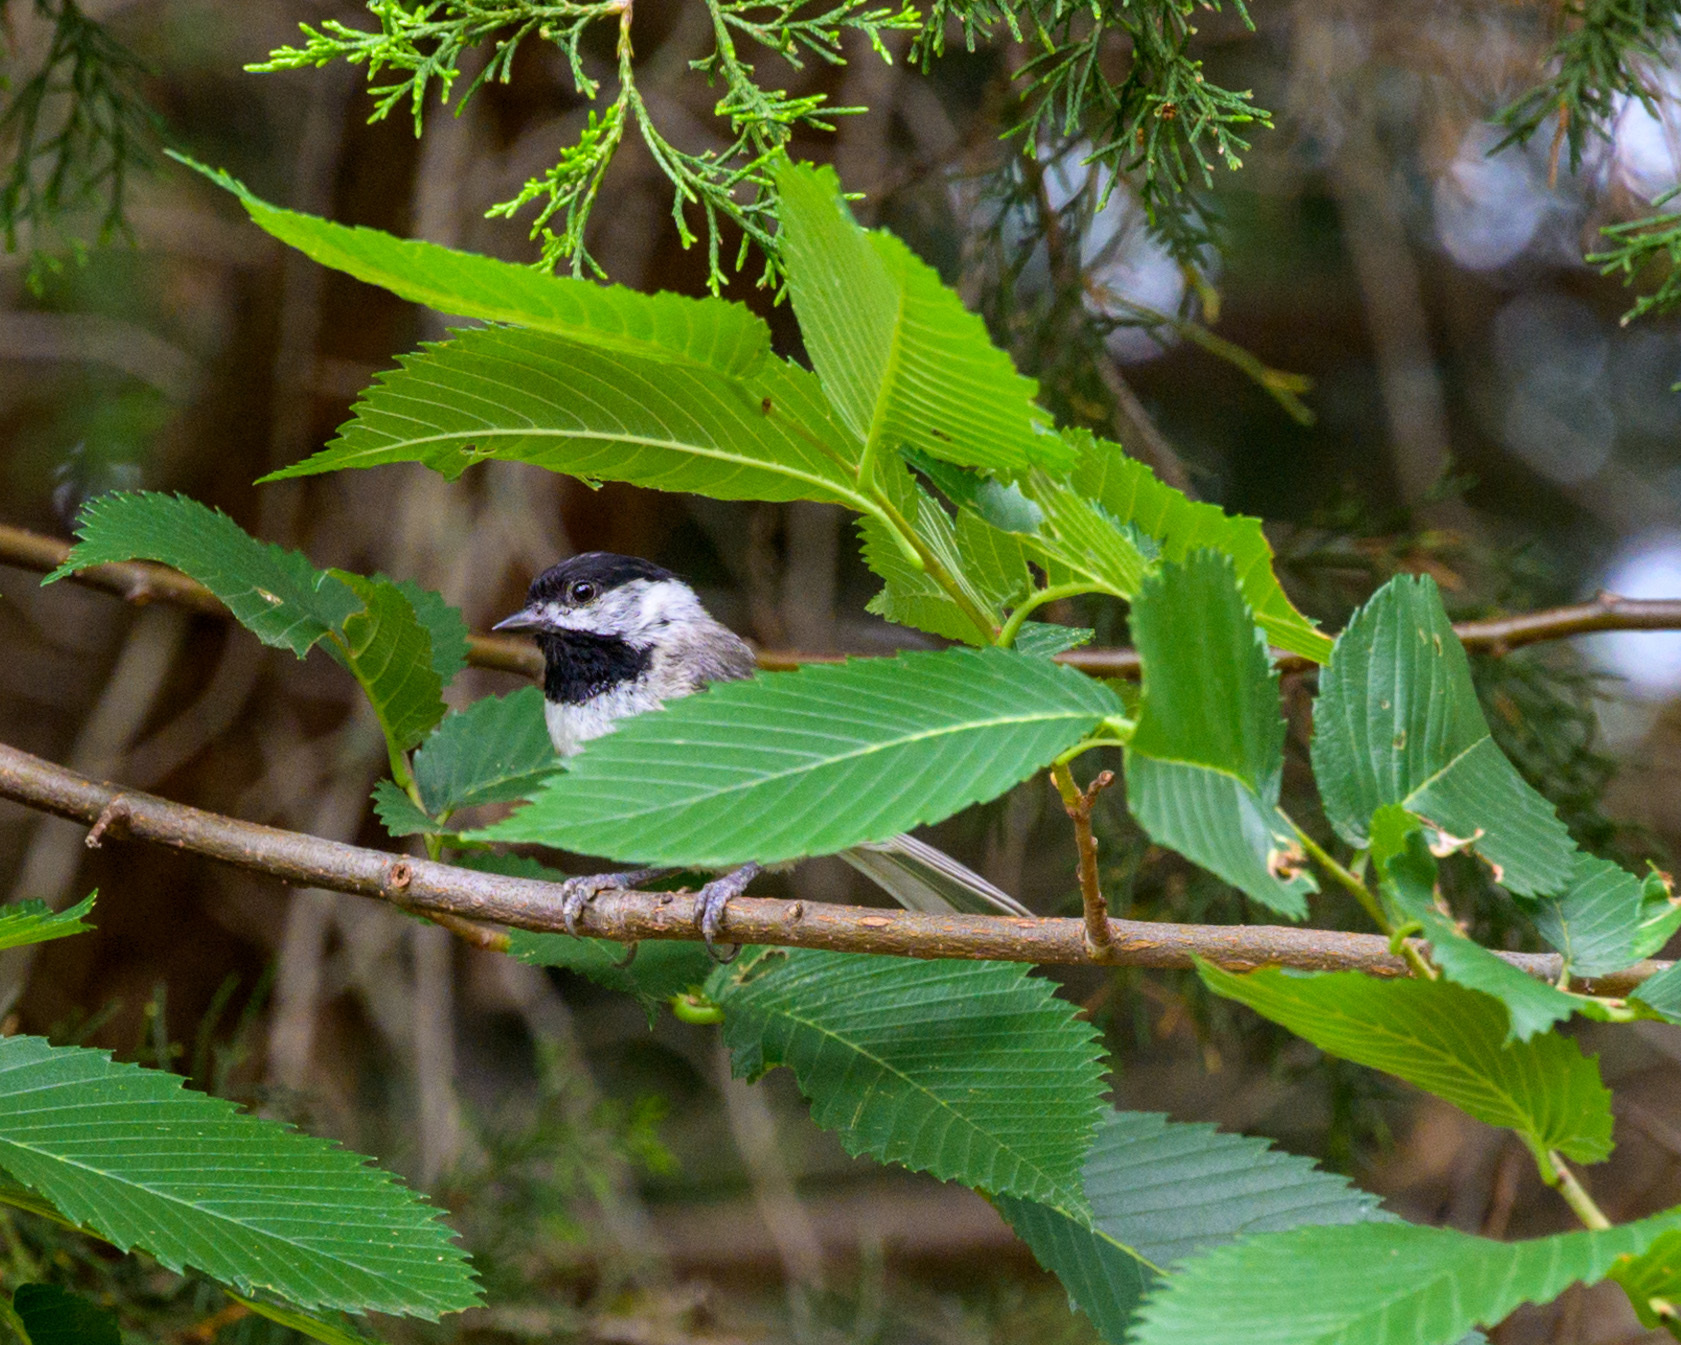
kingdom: Animalia
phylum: Chordata
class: Aves
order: Passeriformes
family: Paridae
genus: Poecile
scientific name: Poecile carolinensis
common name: Carolina chickadee
